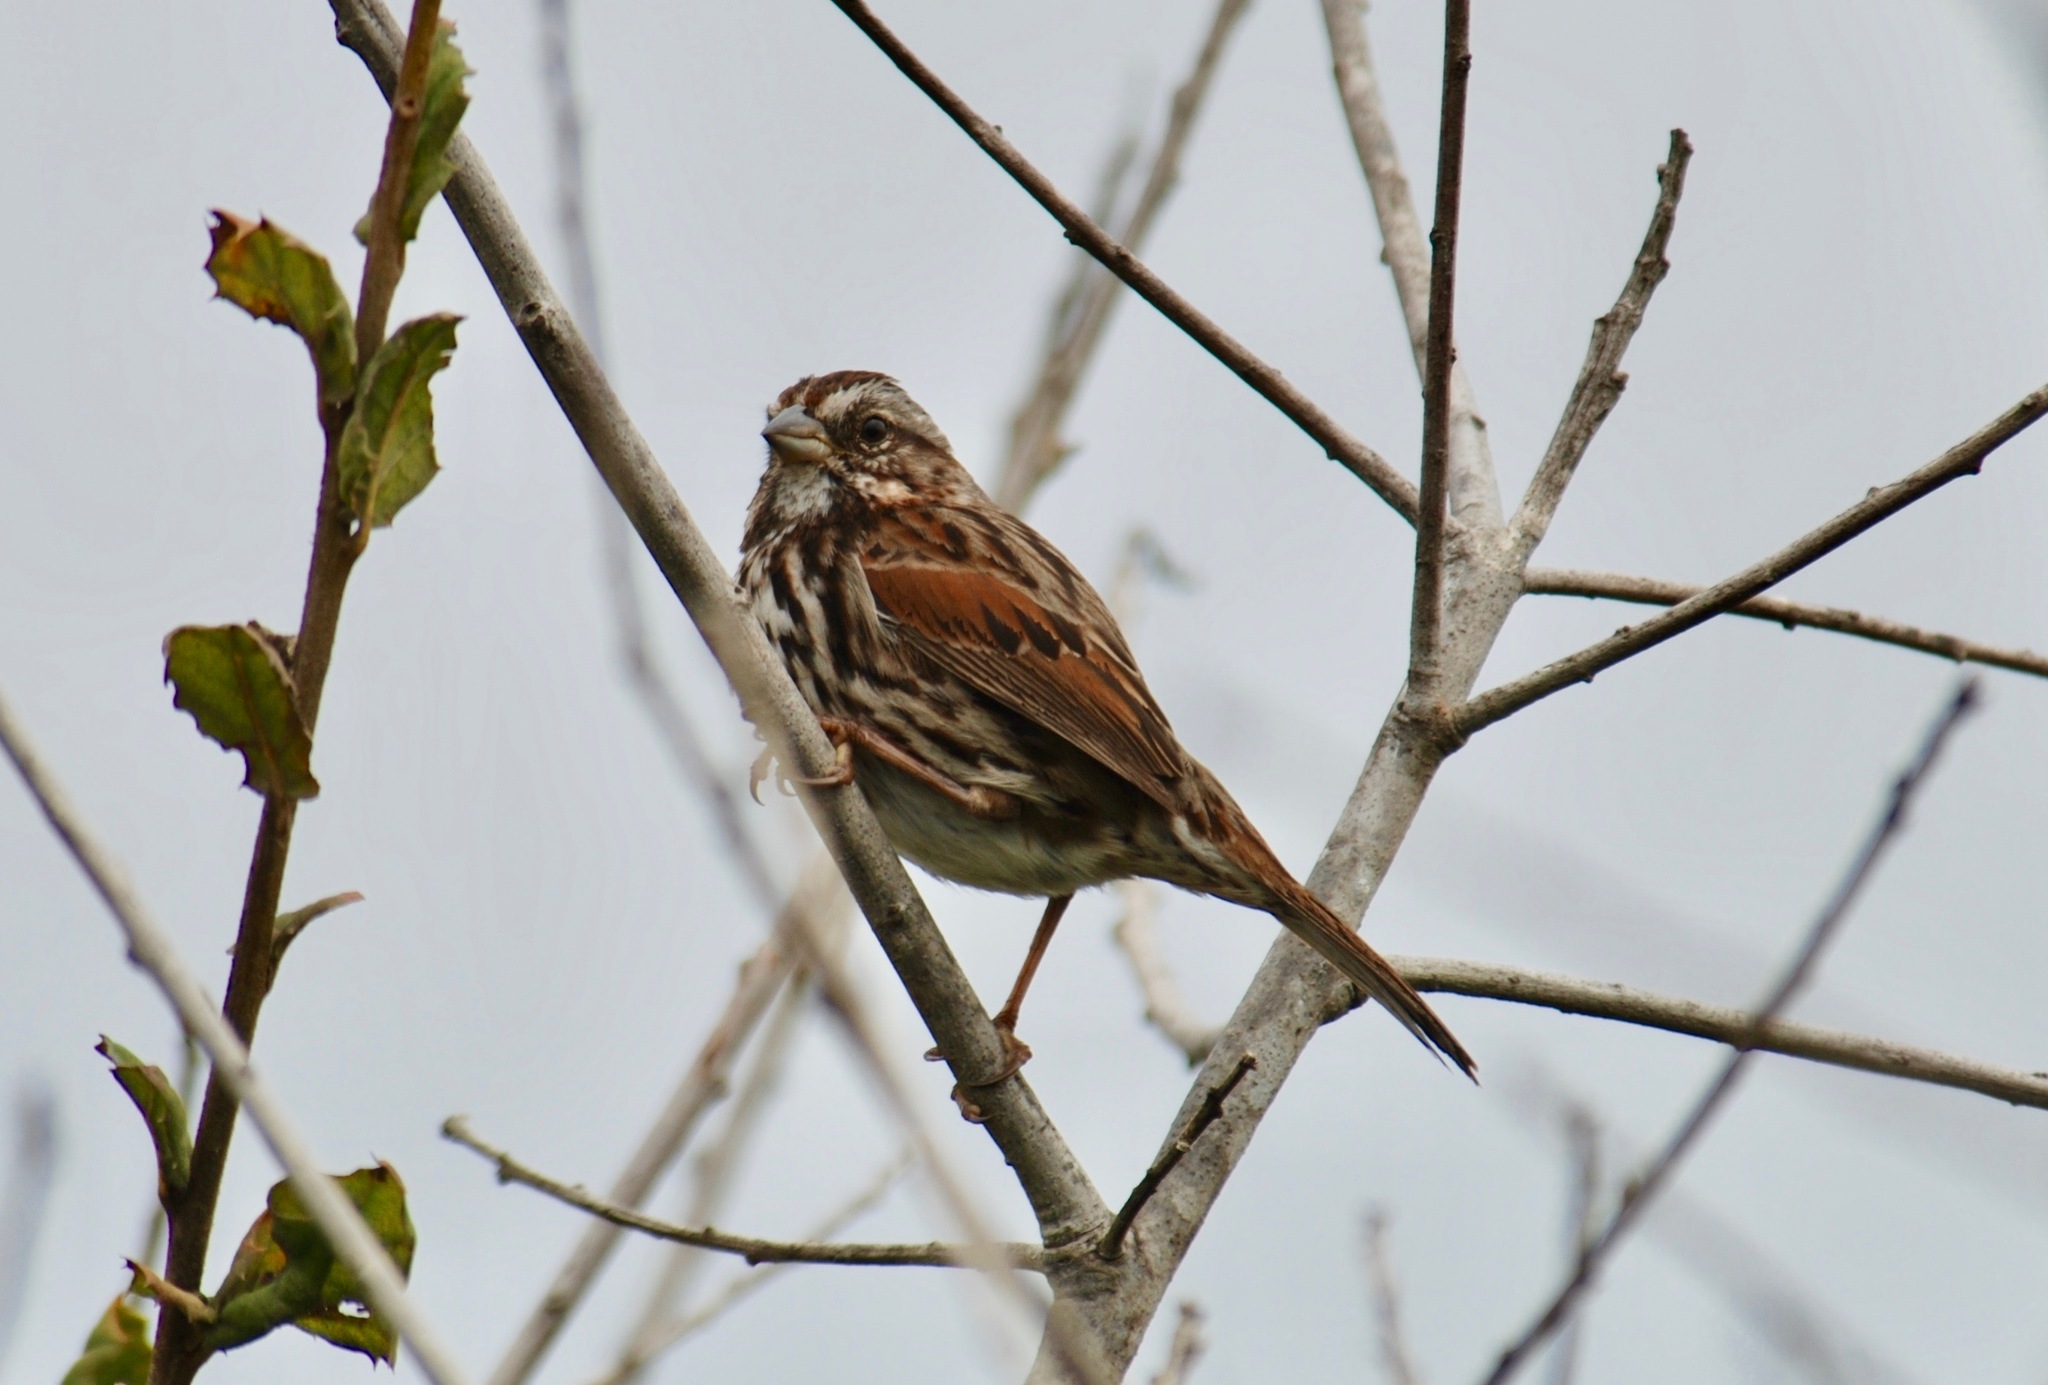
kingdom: Animalia
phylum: Chordata
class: Aves
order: Passeriformes
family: Passerellidae
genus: Melospiza
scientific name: Melospiza melodia
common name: Song sparrow
